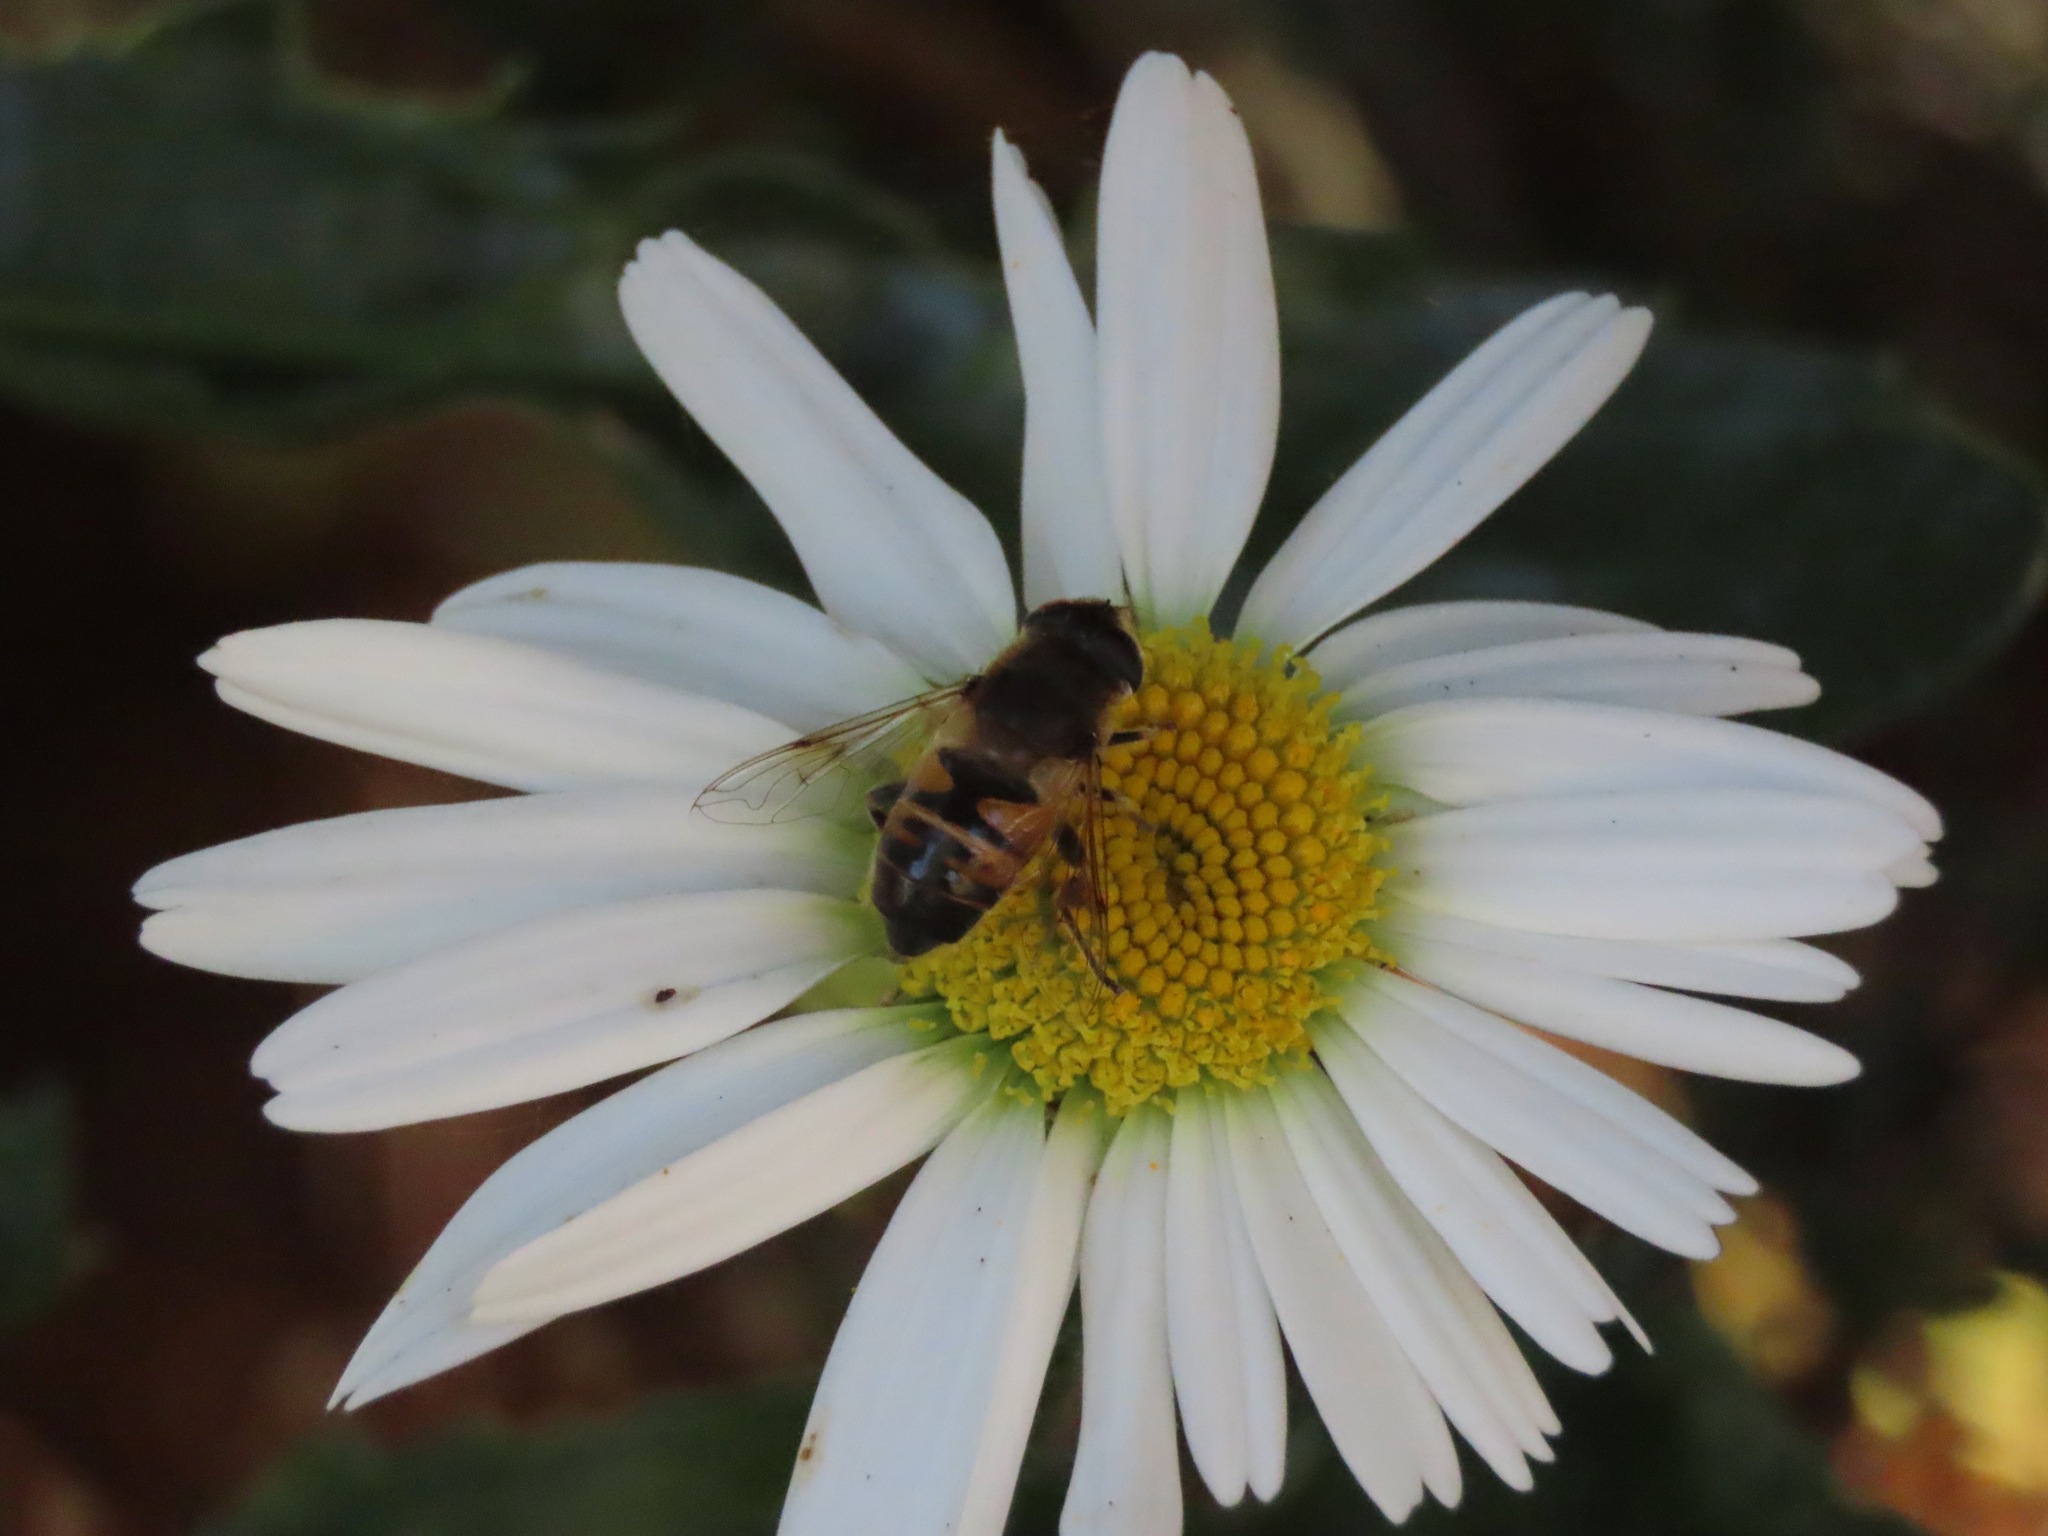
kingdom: Animalia
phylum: Arthropoda
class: Insecta
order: Diptera
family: Syrphidae
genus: Eristalis
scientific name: Eristalis tenax
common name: Drone fly
